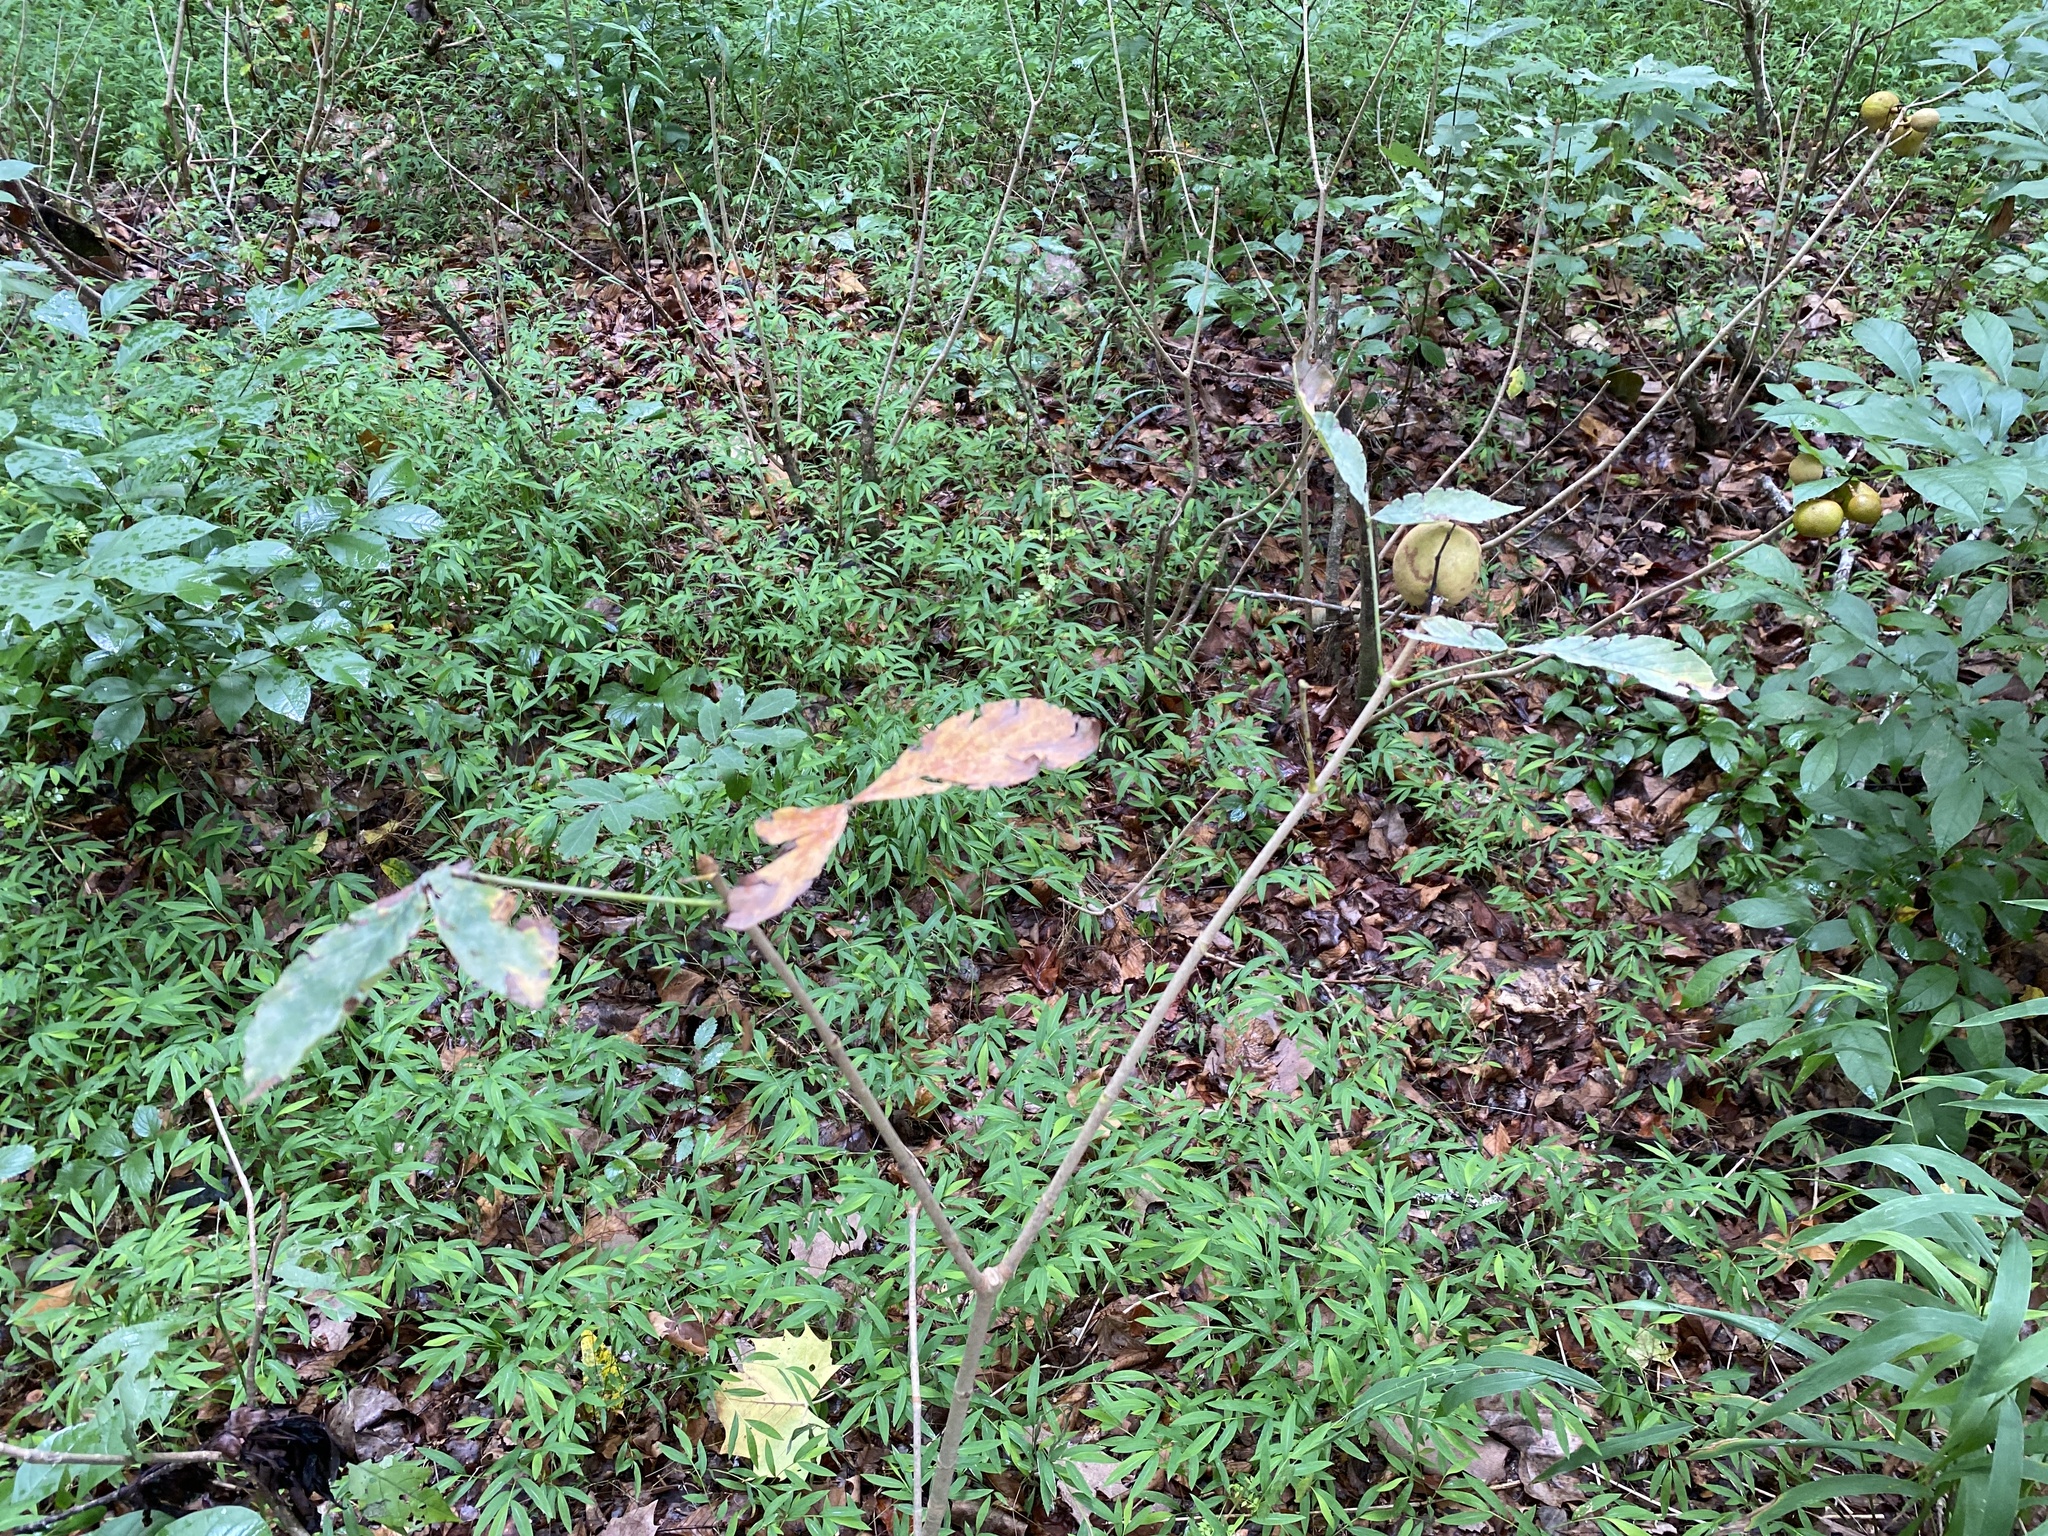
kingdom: Plantae
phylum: Tracheophyta
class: Magnoliopsida
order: Sapindales
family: Sapindaceae
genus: Aesculus
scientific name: Aesculus sylvatica
